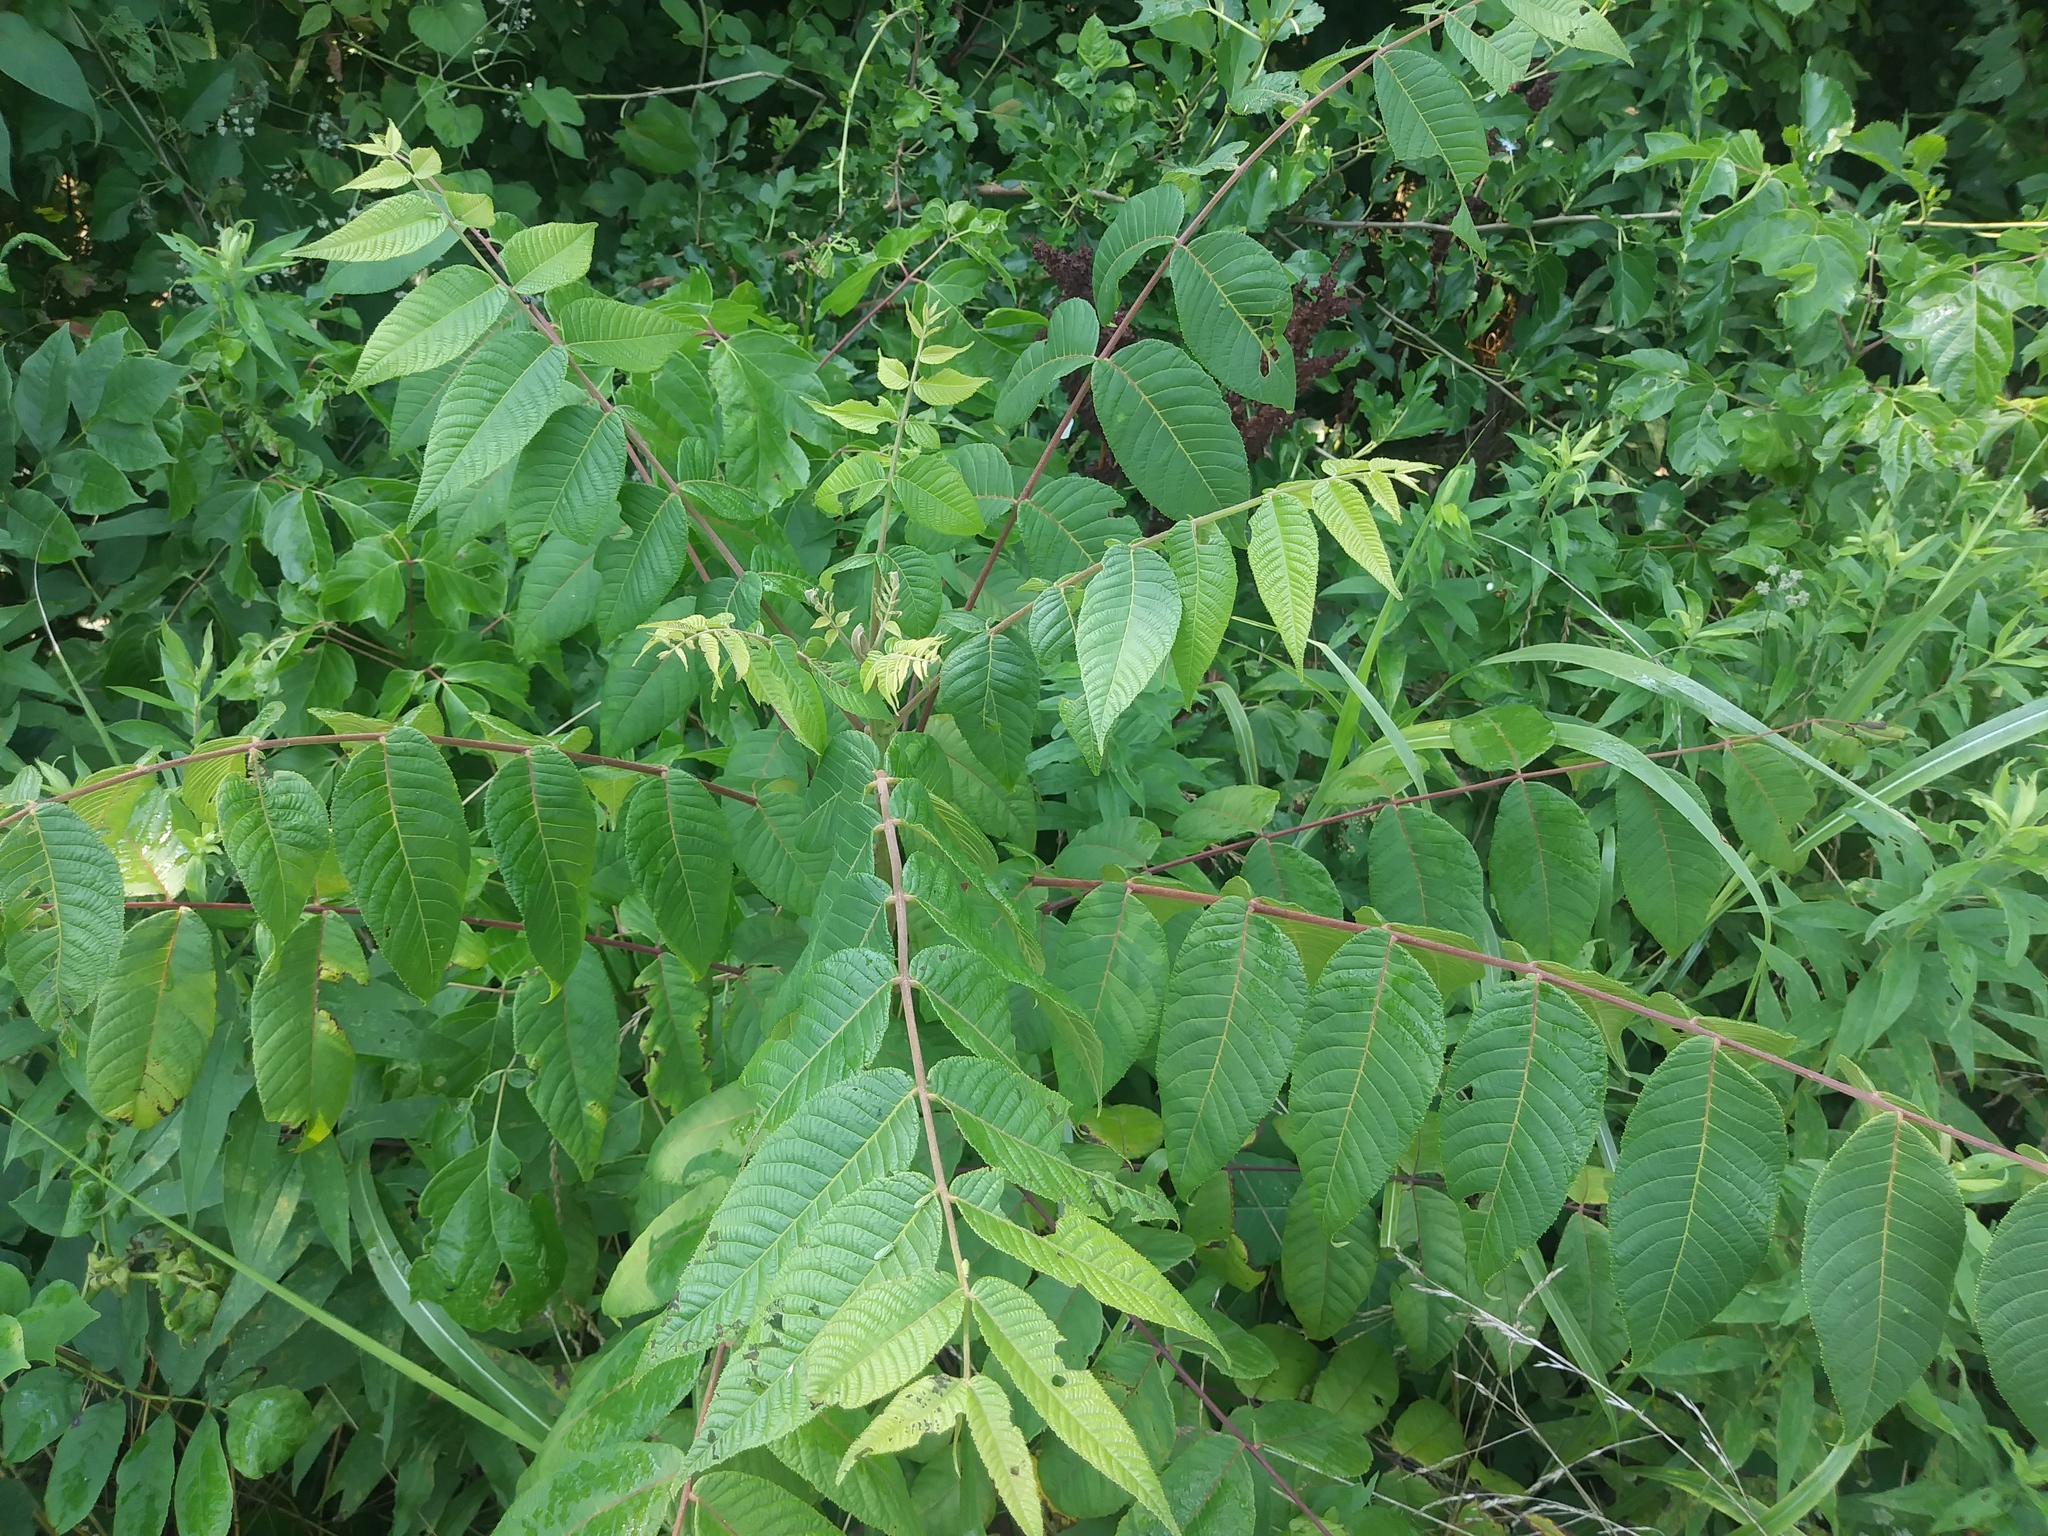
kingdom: Plantae
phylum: Tracheophyta
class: Magnoliopsida
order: Fagales
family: Juglandaceae
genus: Juglans
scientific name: Juglans nigra
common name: Black walnut
